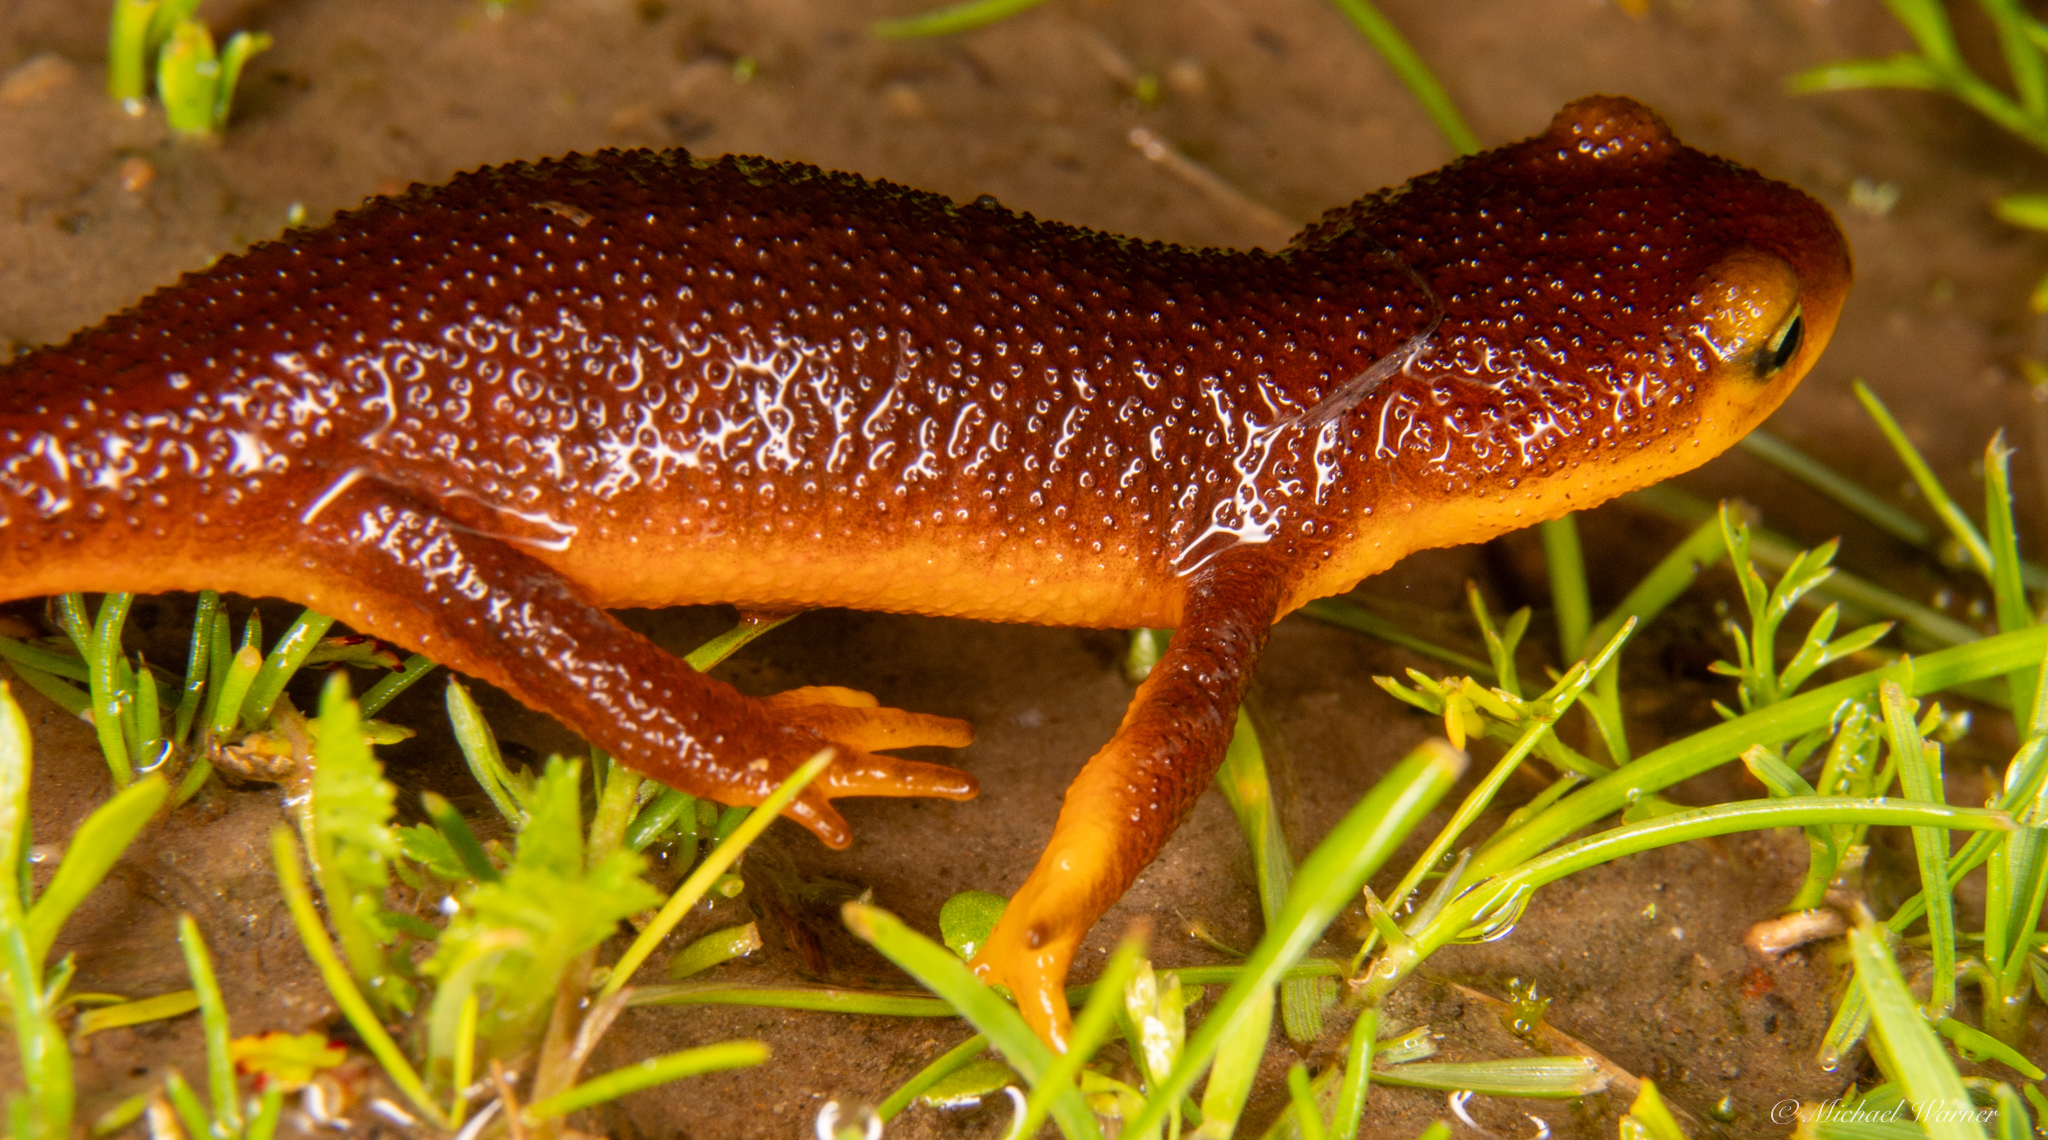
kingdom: Animalia
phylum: Chordata
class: Amphibia
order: Caudata
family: Salamandridae
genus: Taricha
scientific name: Taricha torosa
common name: California newt
